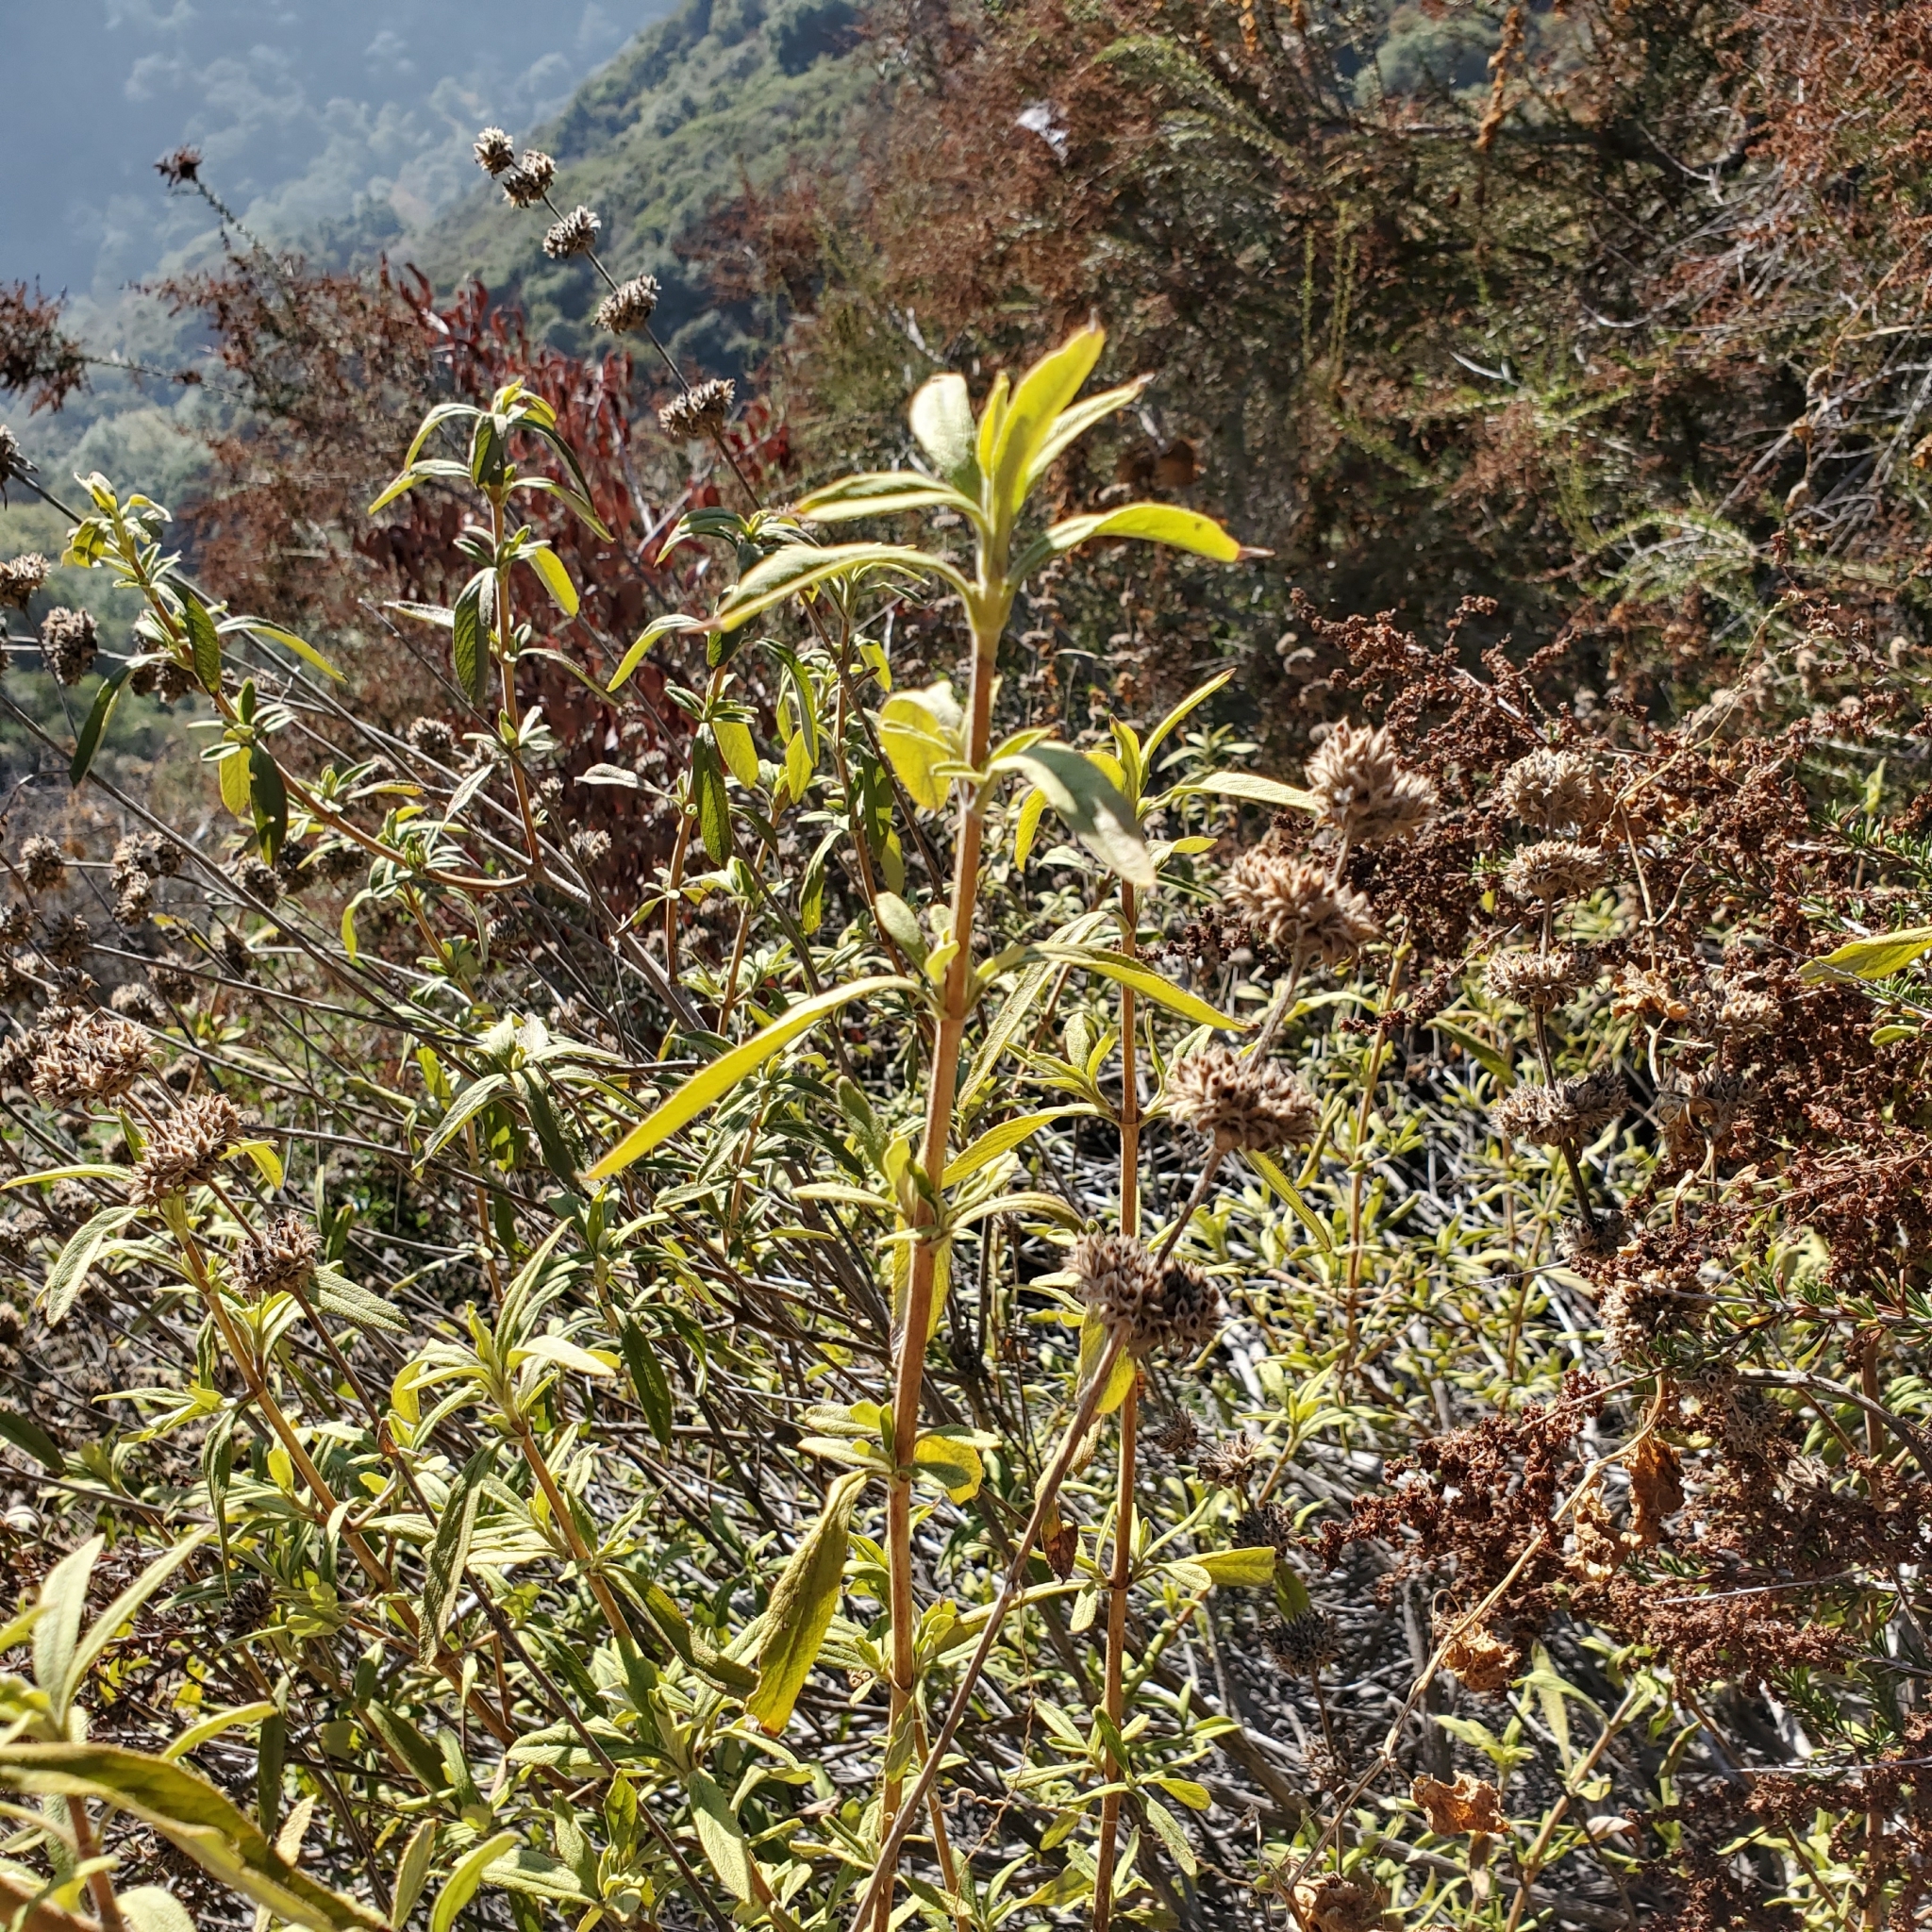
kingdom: Plantae
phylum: Tracheophyta
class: Magnoliopsida
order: Lamiales
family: Lamiaceae
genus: Salvia
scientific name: Salvia mellifera
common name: Black sage
